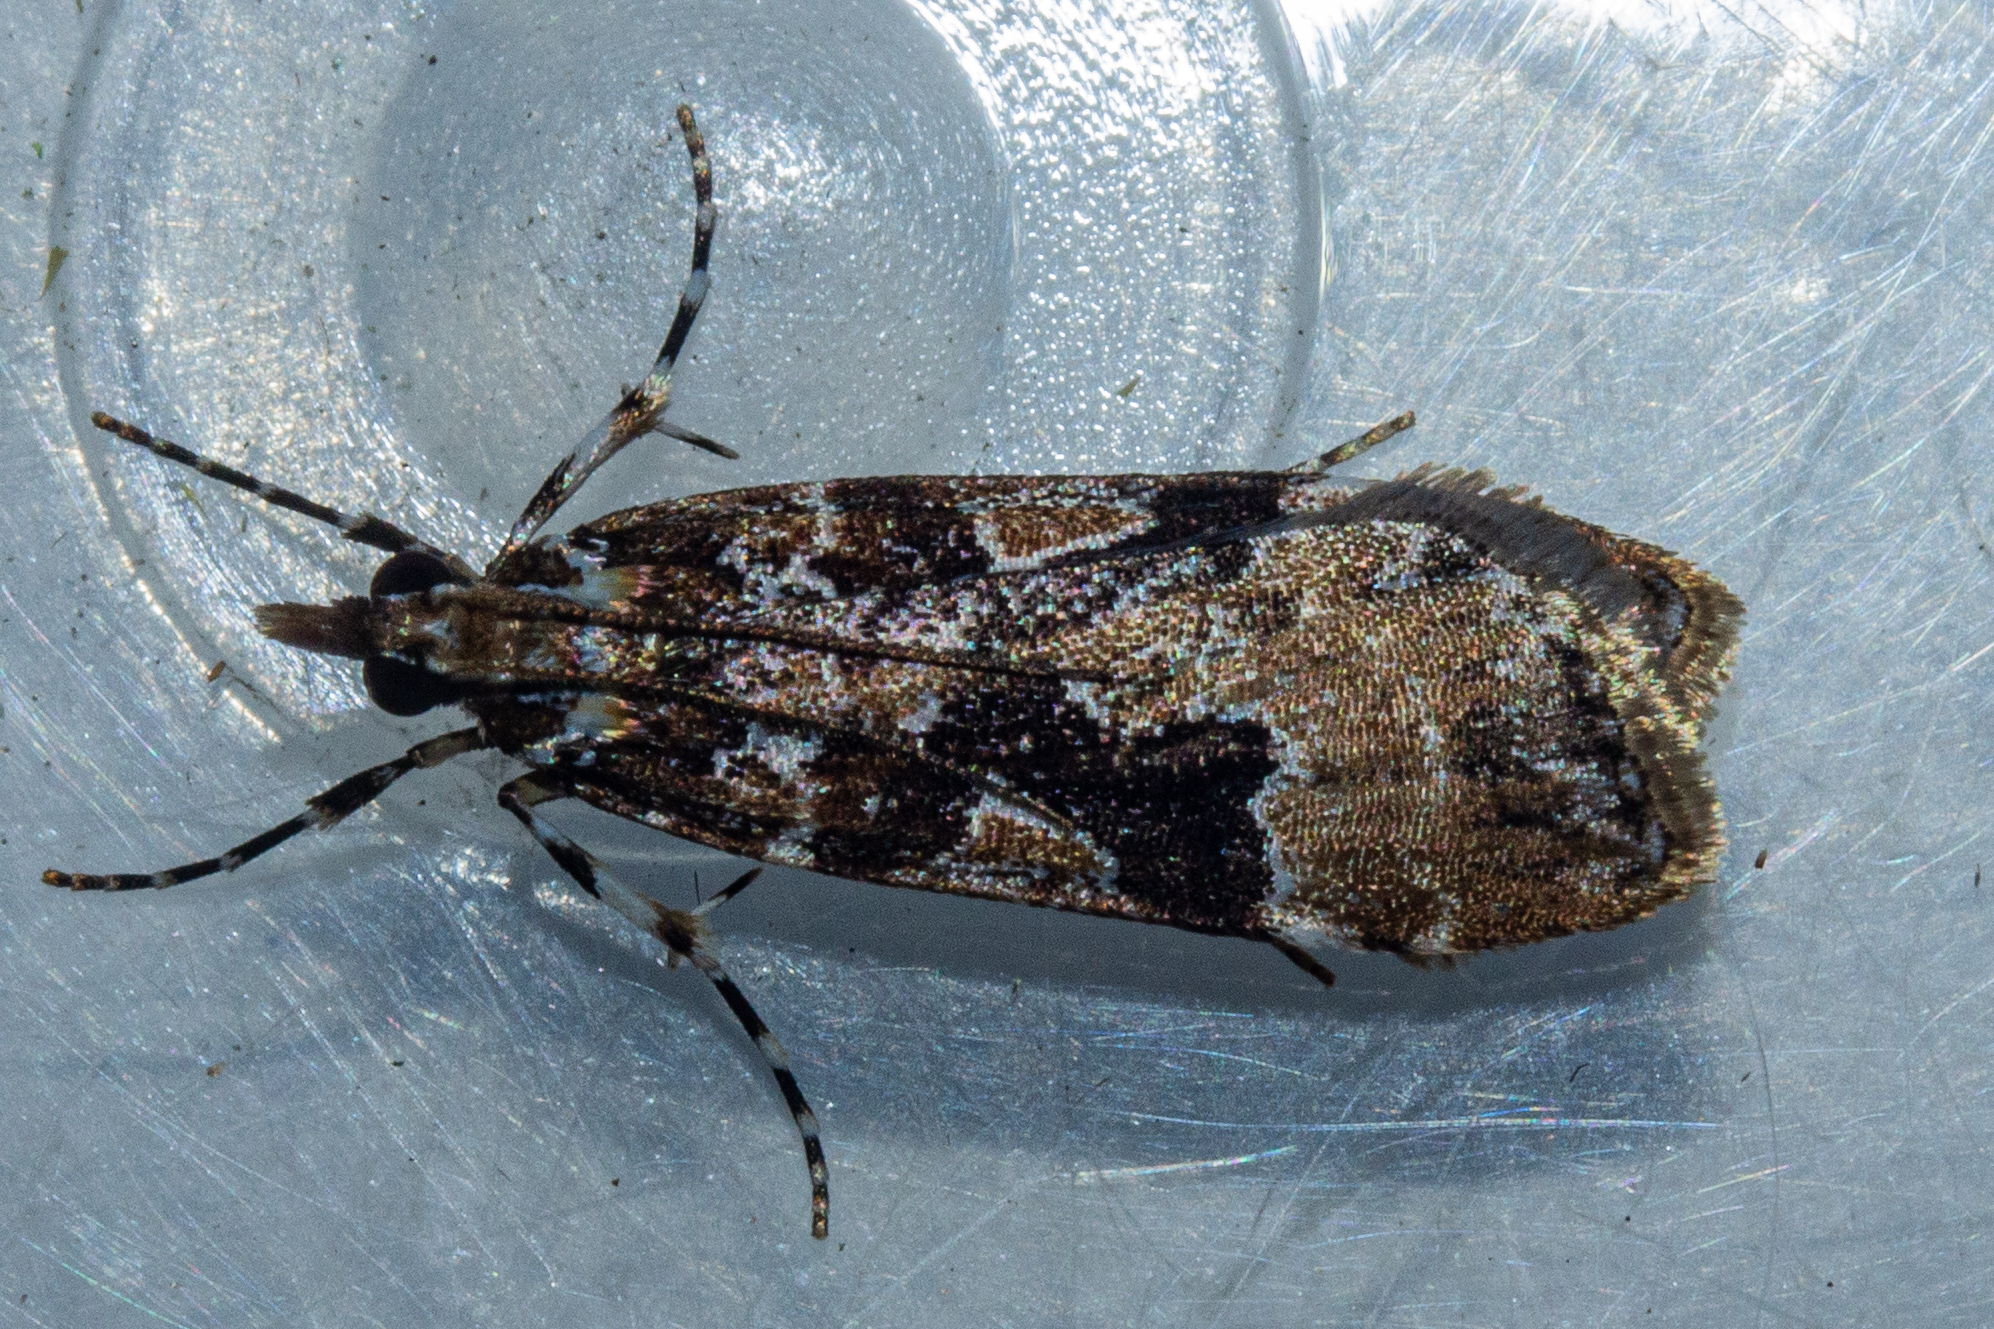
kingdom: Animalia
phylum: Arthropoda
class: Insecta
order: Lepidoptera
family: Crambidae
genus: Scoparia
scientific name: Scoparia ustimacula
